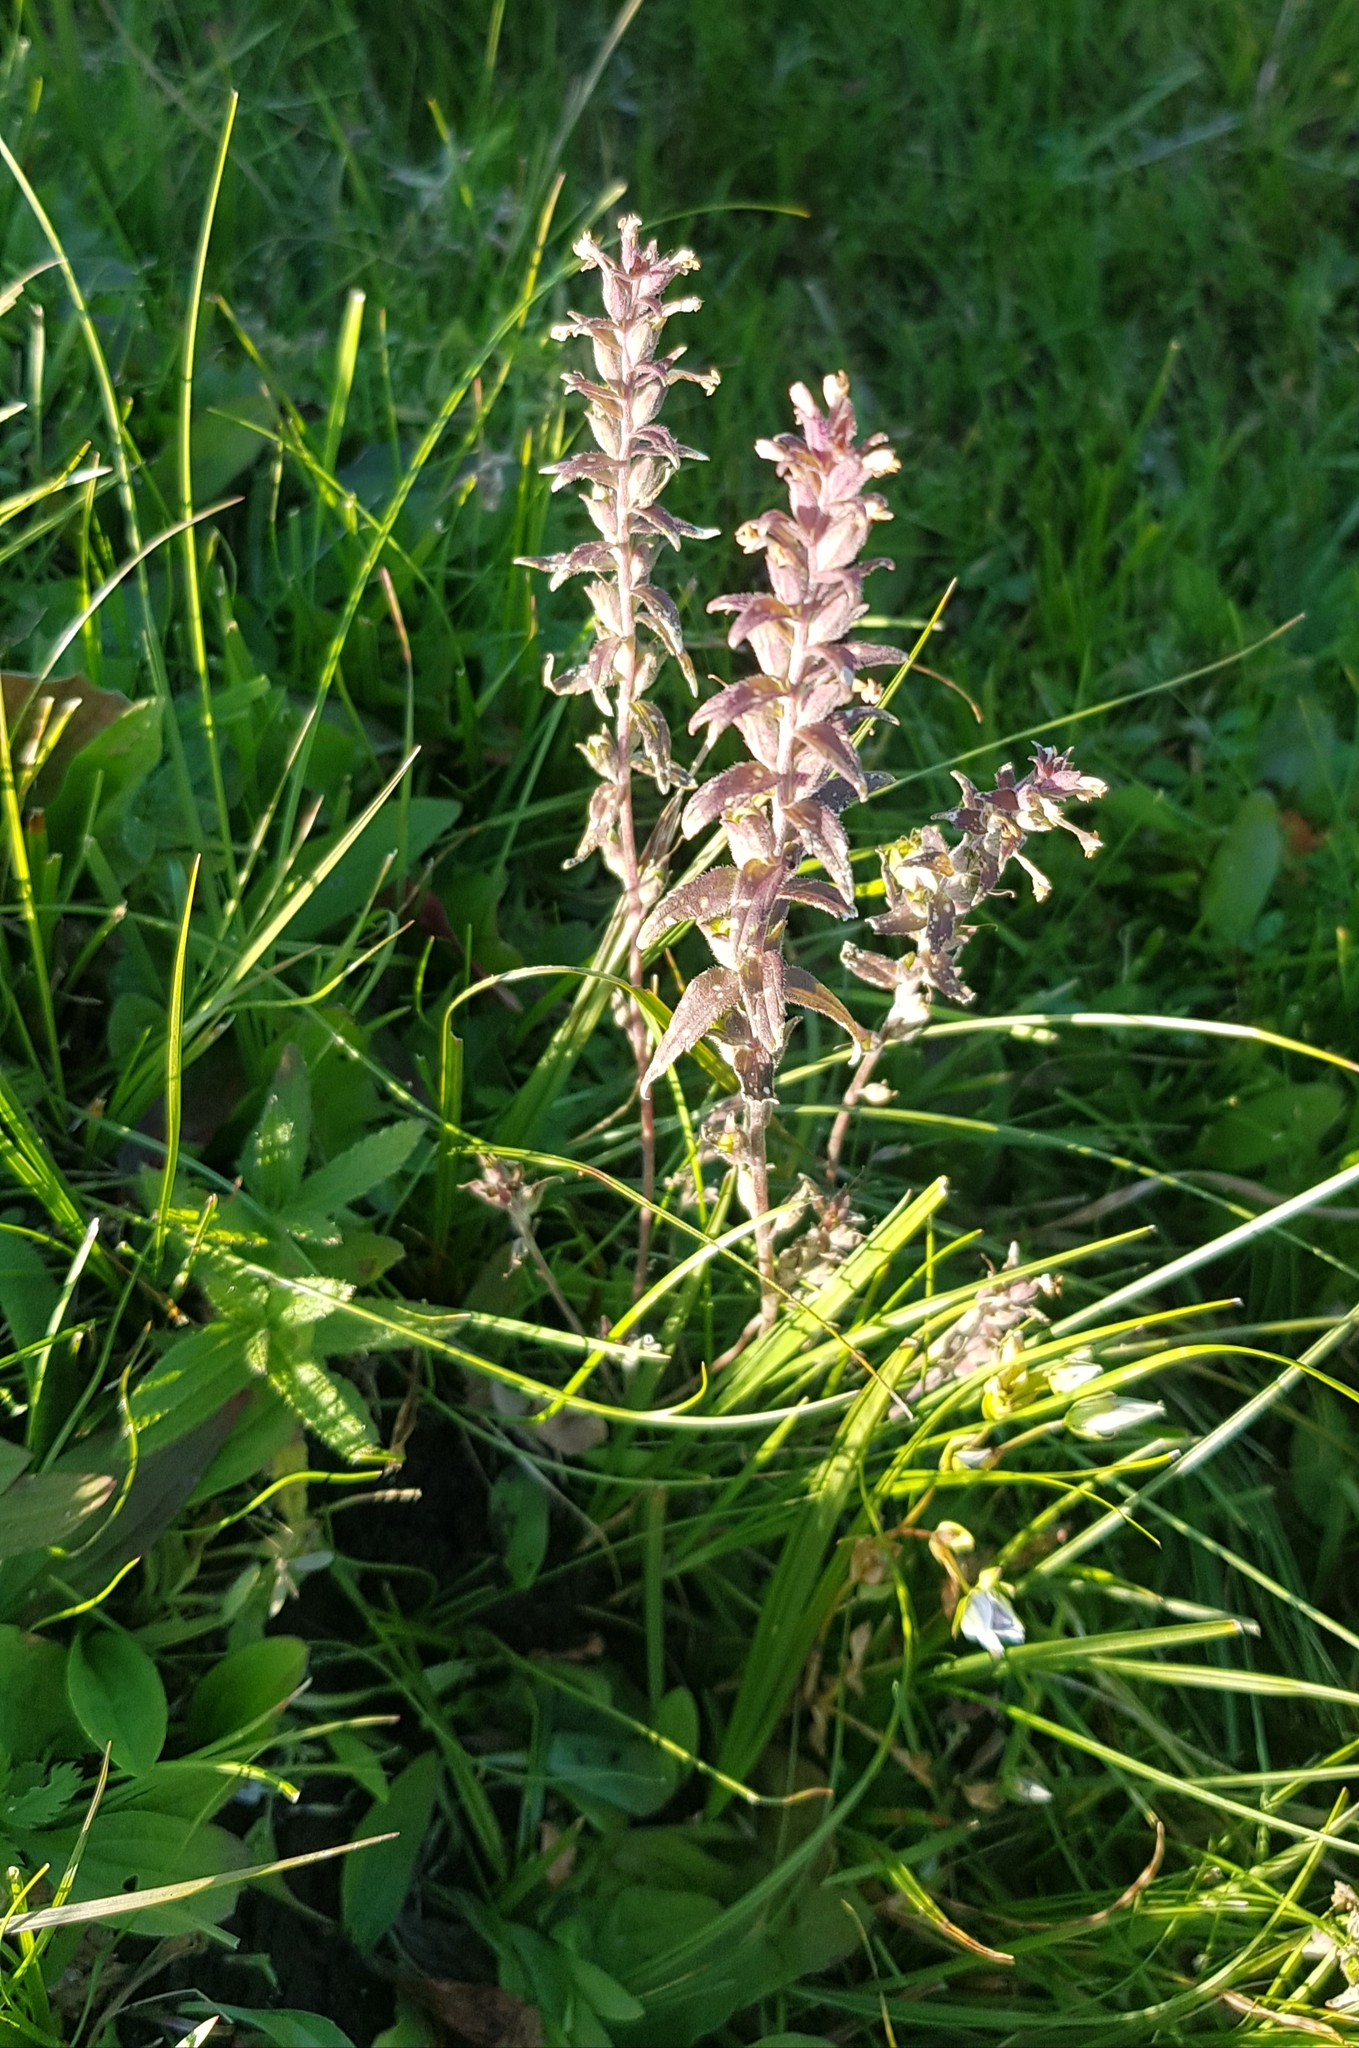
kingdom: Plantae
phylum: Tracheophyta
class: Magnoliopsida
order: Lamiales
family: Orobanchaceae
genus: Odontites
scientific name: Odontites vulgaris
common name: Broomrape
